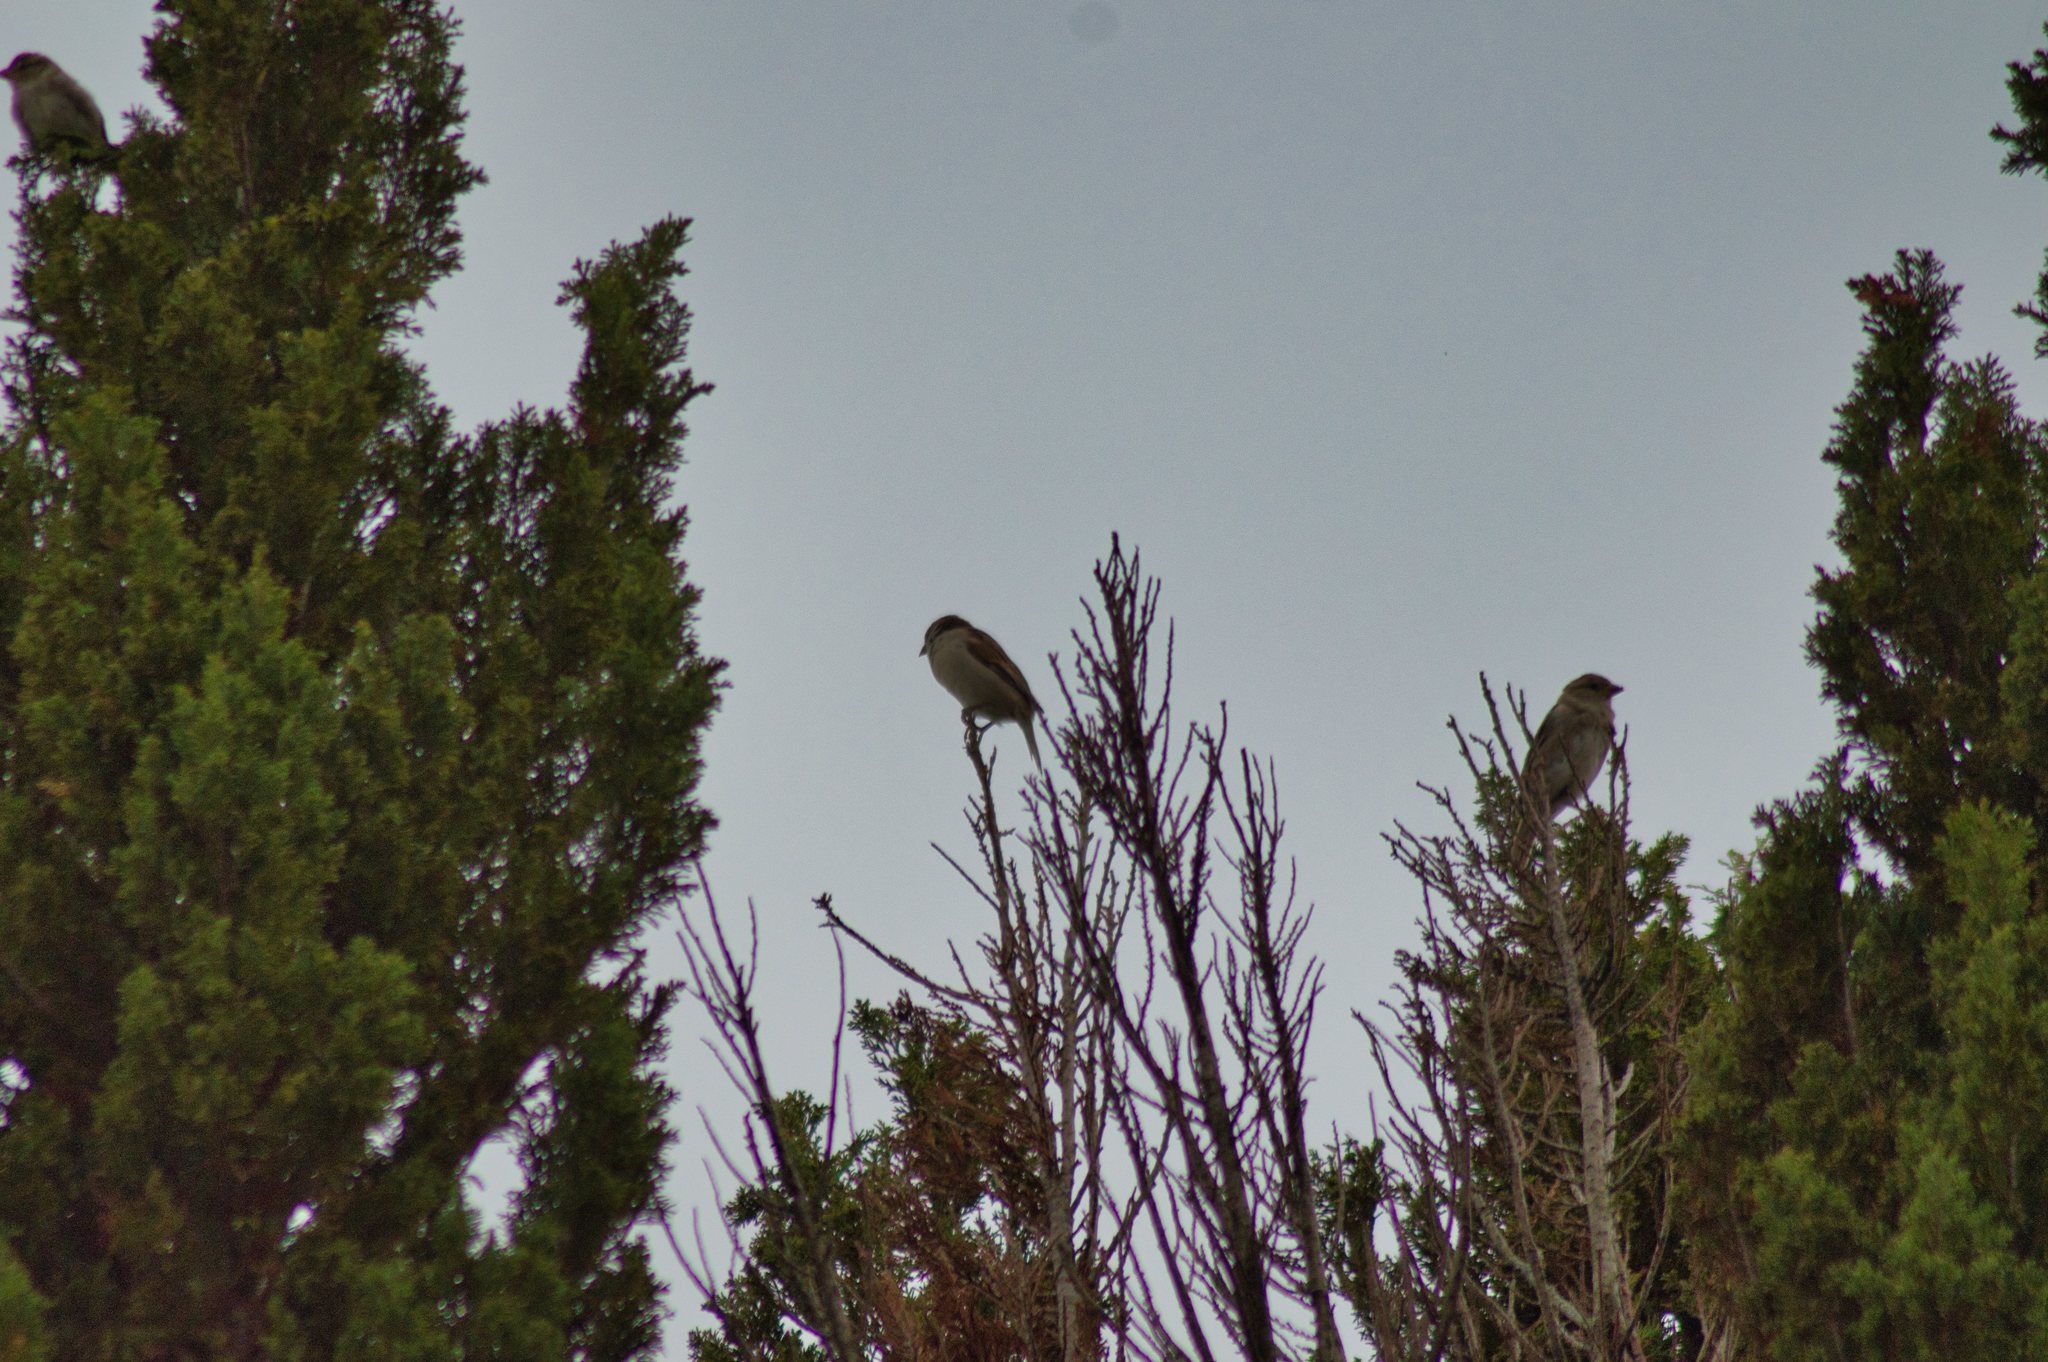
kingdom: Animalia
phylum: Chordata
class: Aves
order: Passeriformes
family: Passeridae
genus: Passer
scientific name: Passer domesticus
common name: House sparrow
